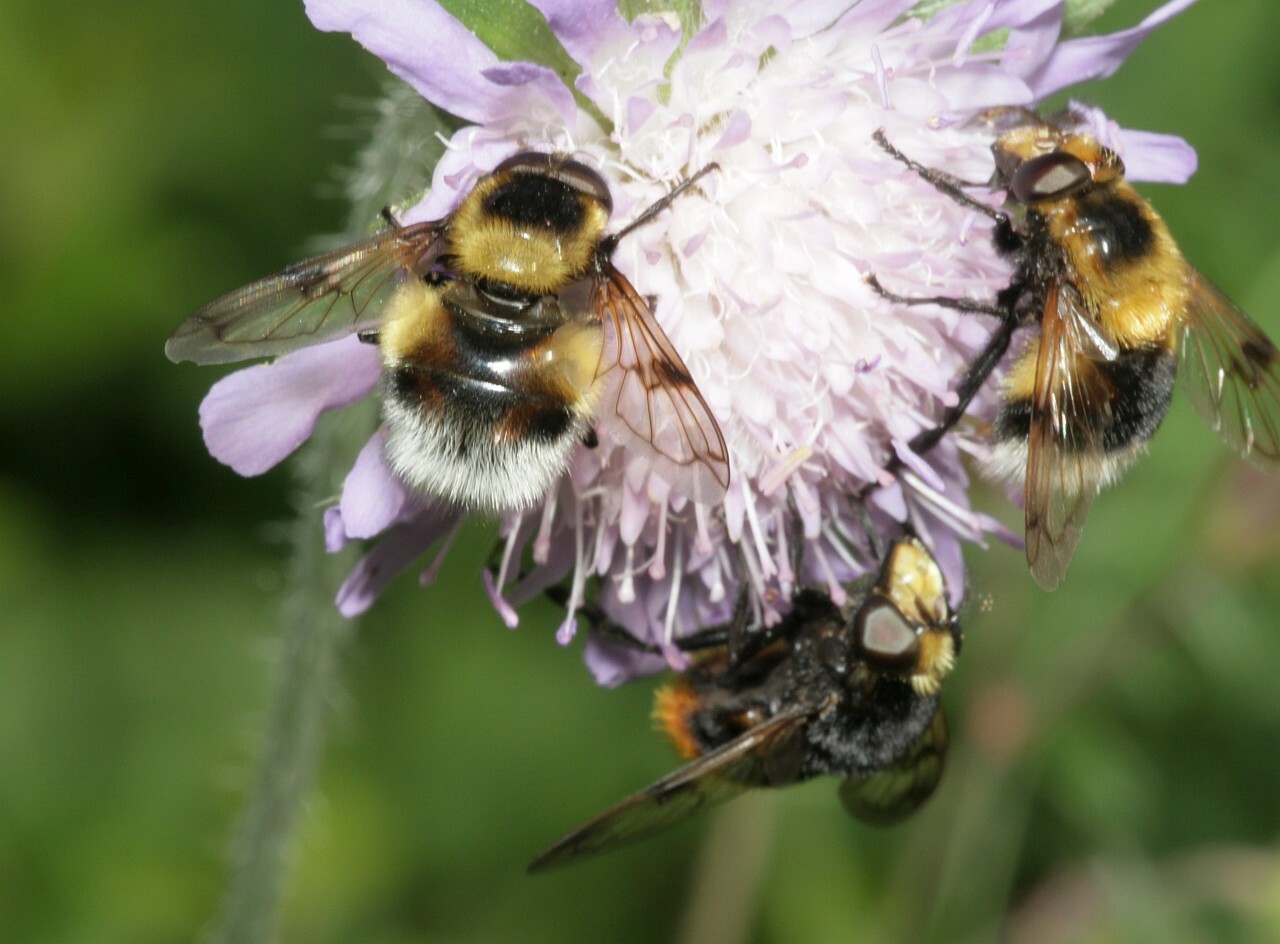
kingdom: Animalia
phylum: Arthropoda
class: Insecta
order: Diptera
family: Syrphidae
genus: Volucella
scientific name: Volucella bombylans
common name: Bumble bee hover fly
